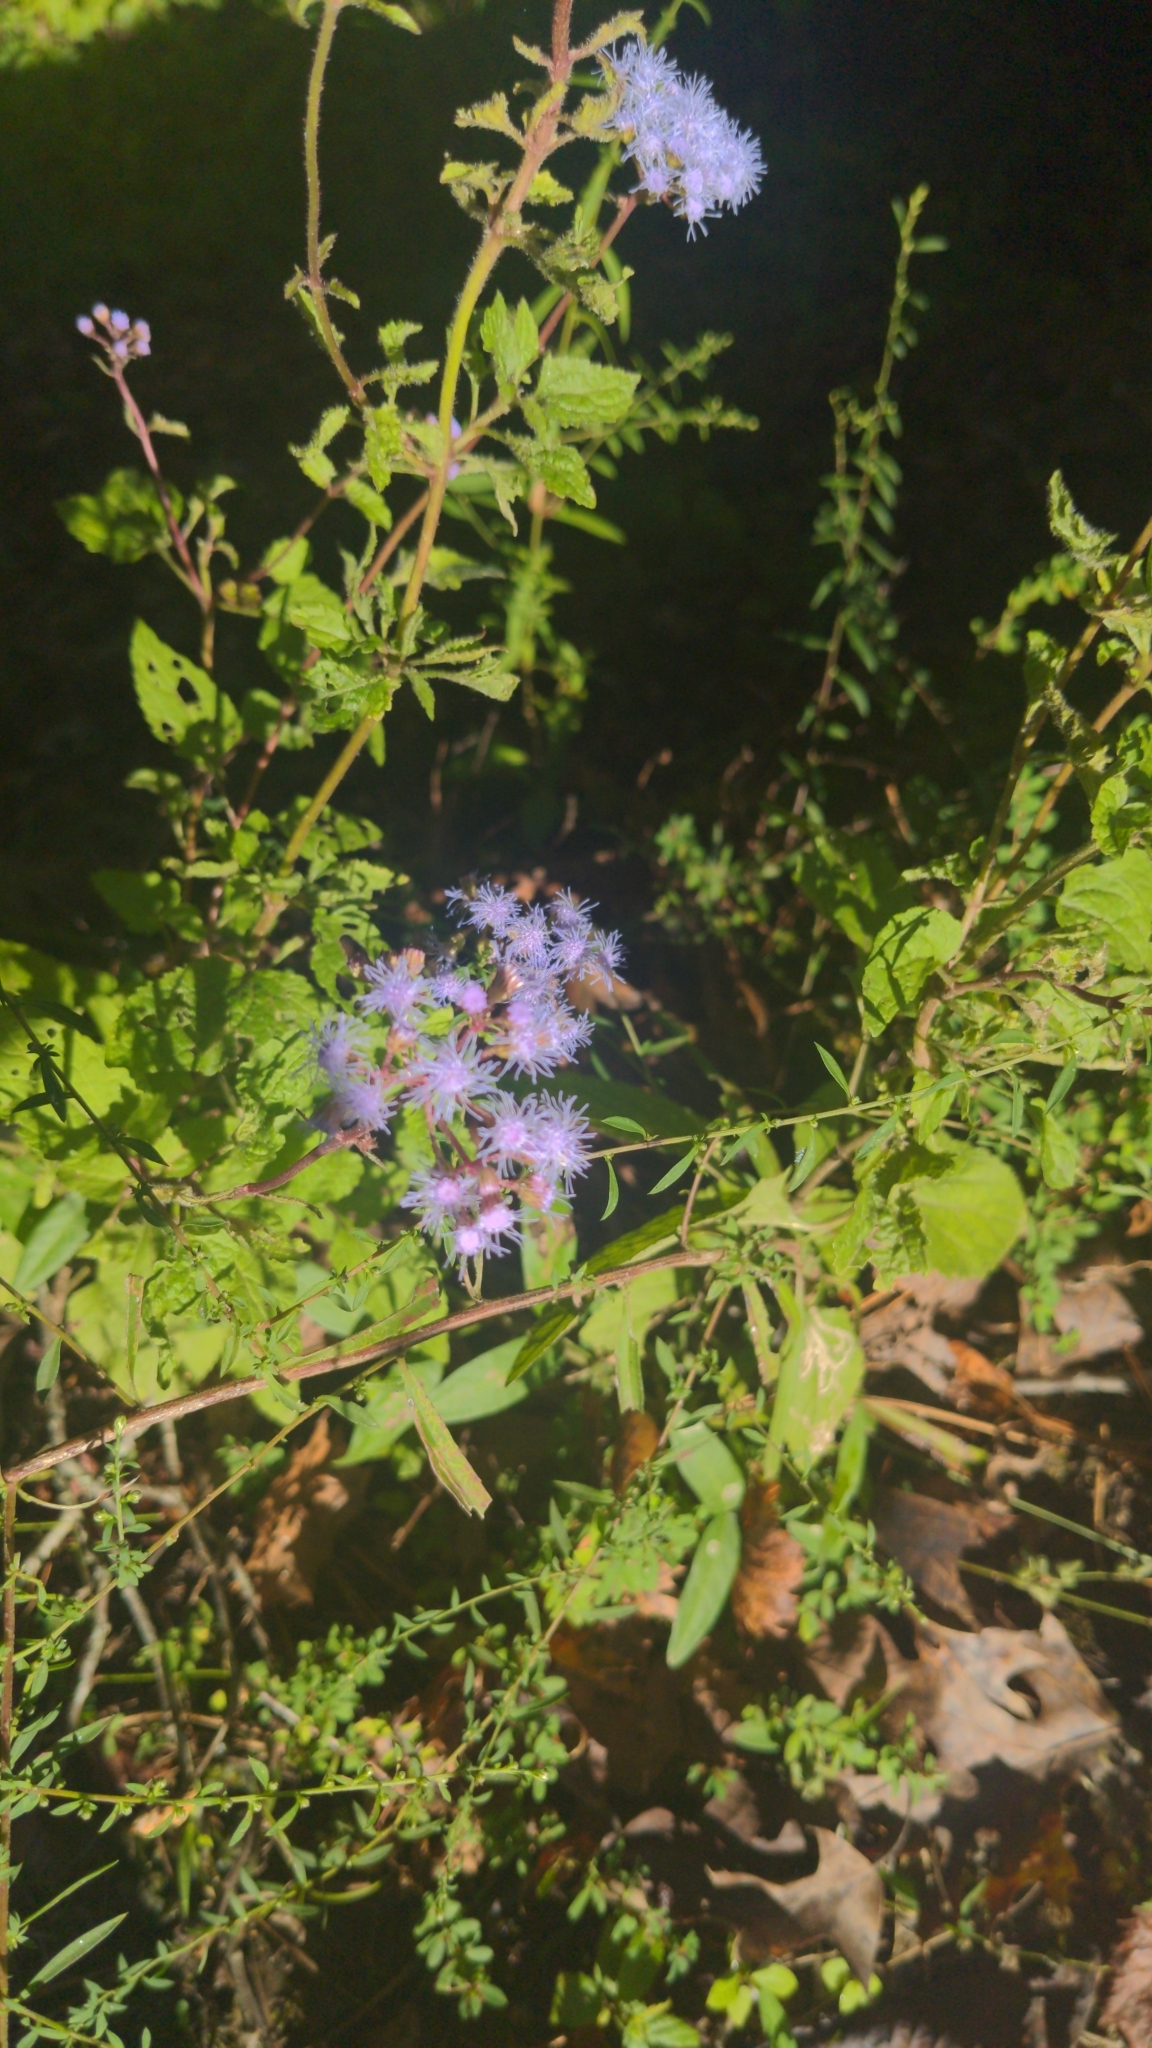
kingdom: Plantae
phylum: Tracheophyta
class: Magnoliopsida
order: Asterales
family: Asteraceae
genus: Conoclinium
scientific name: Conoclinium coelestinum
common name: Blue mistflower
